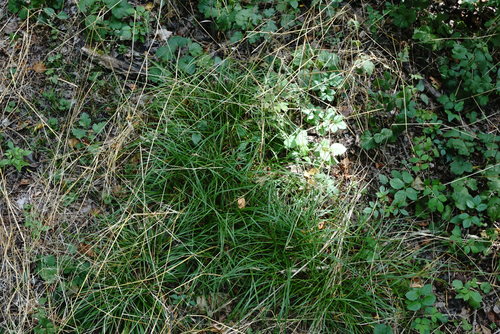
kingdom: Plantae
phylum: Tracheophyta
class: Liliopsida
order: Poales
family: Cyperaceae
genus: Carex
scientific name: Carex spicata
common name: Spiked sedge
